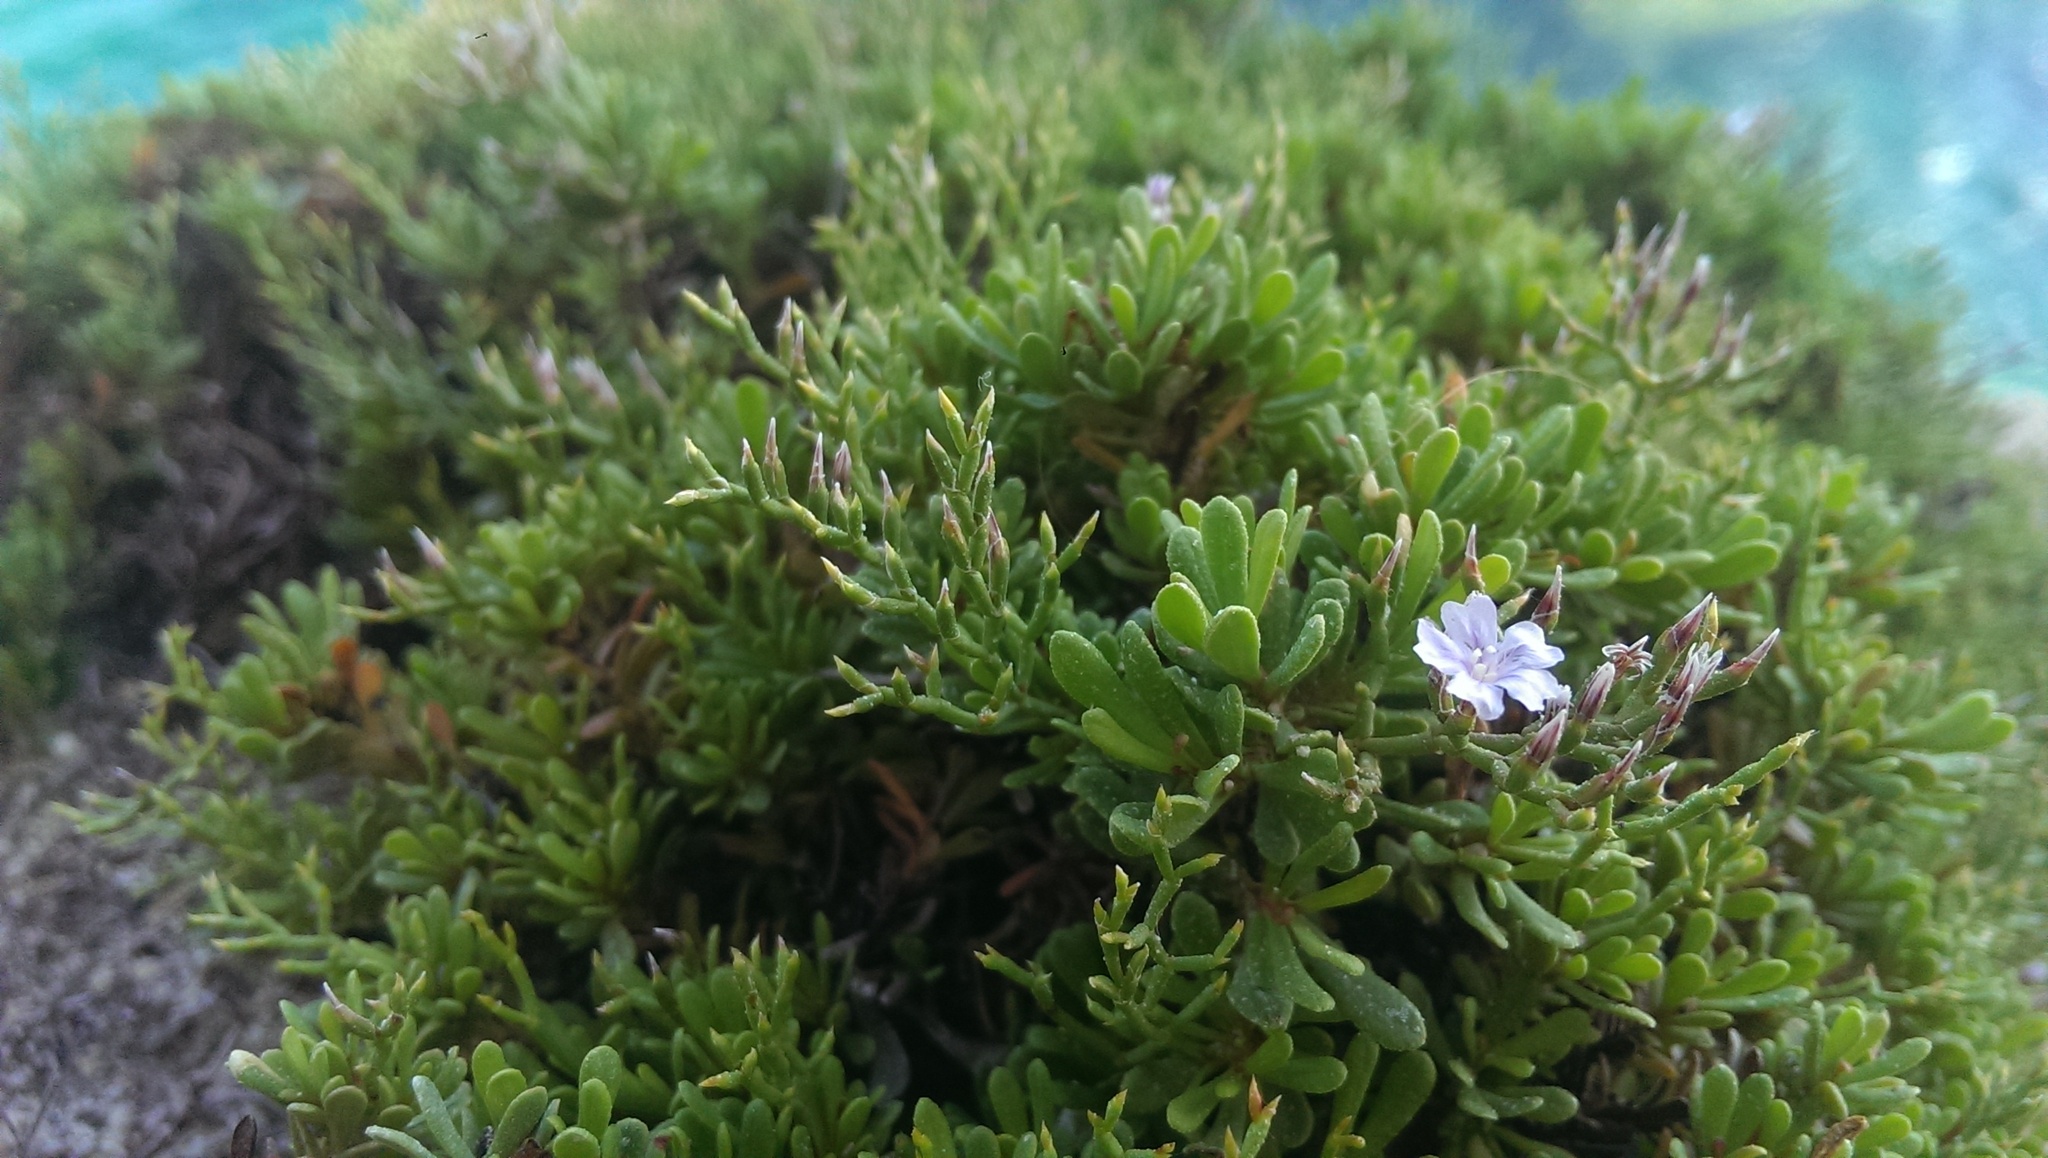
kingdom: Plantae
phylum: Tracheophyta
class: Magnoliopsida
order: Caryophyllales
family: Plumbaginaceae
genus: Limonium
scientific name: Limonium obtusifolium
